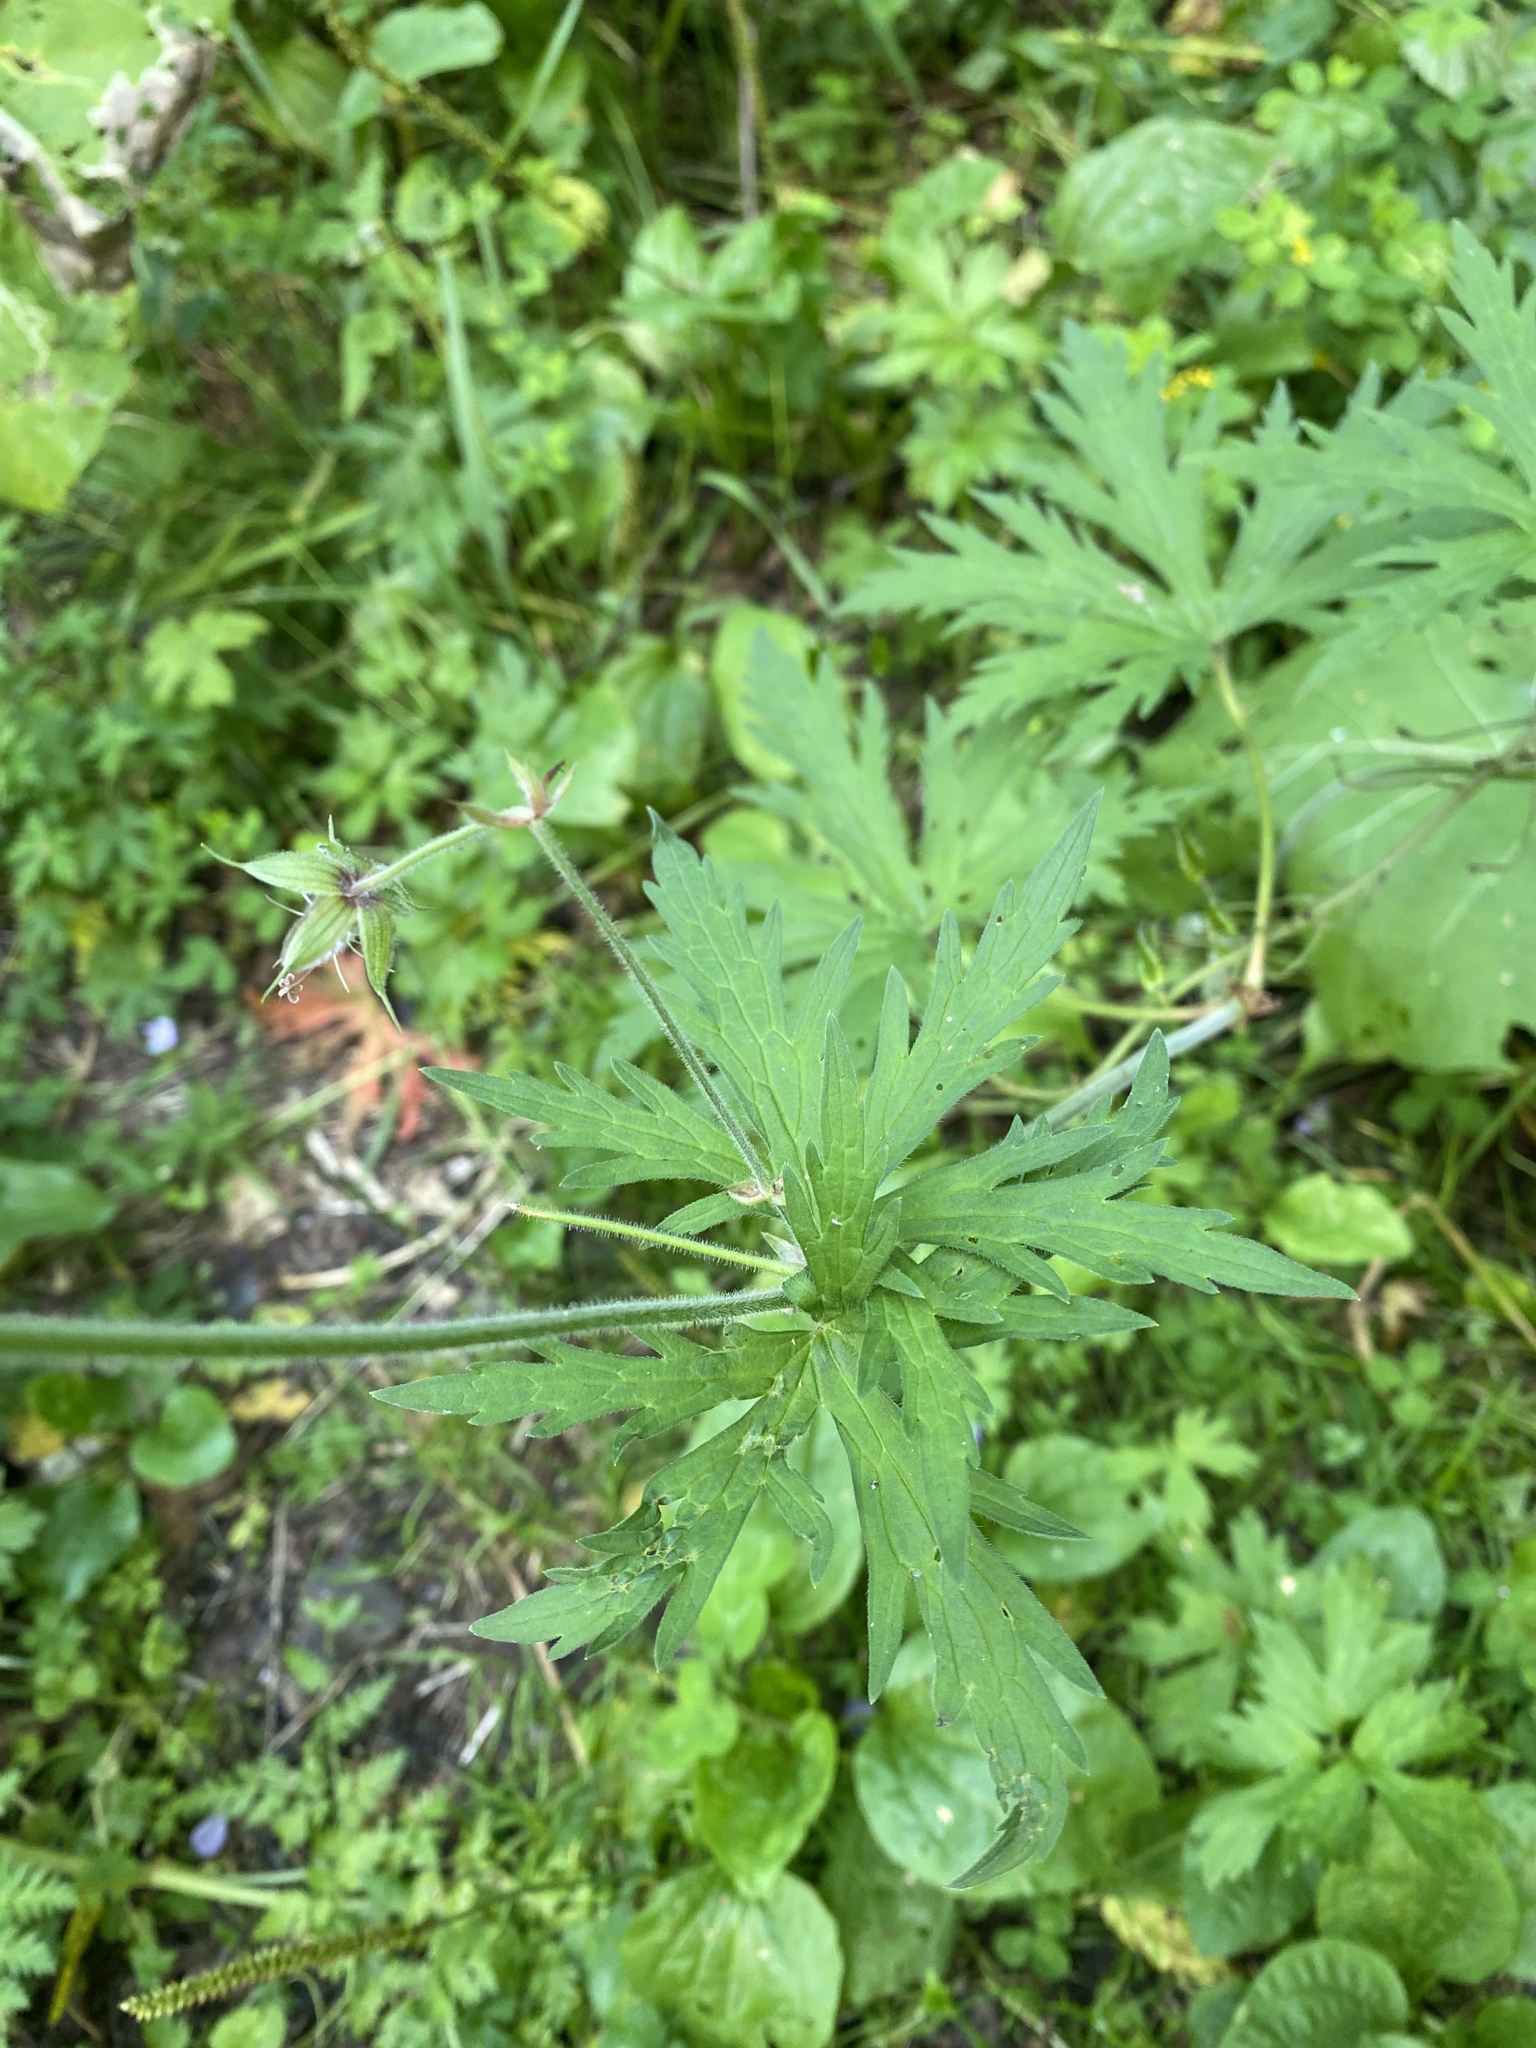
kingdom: Plantae
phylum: Tracheophyta
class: Magnoliopsida
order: Geraniales
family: Geraniaceae
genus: Geranium
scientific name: Geranium pratense
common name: Meadow crane's-bill
